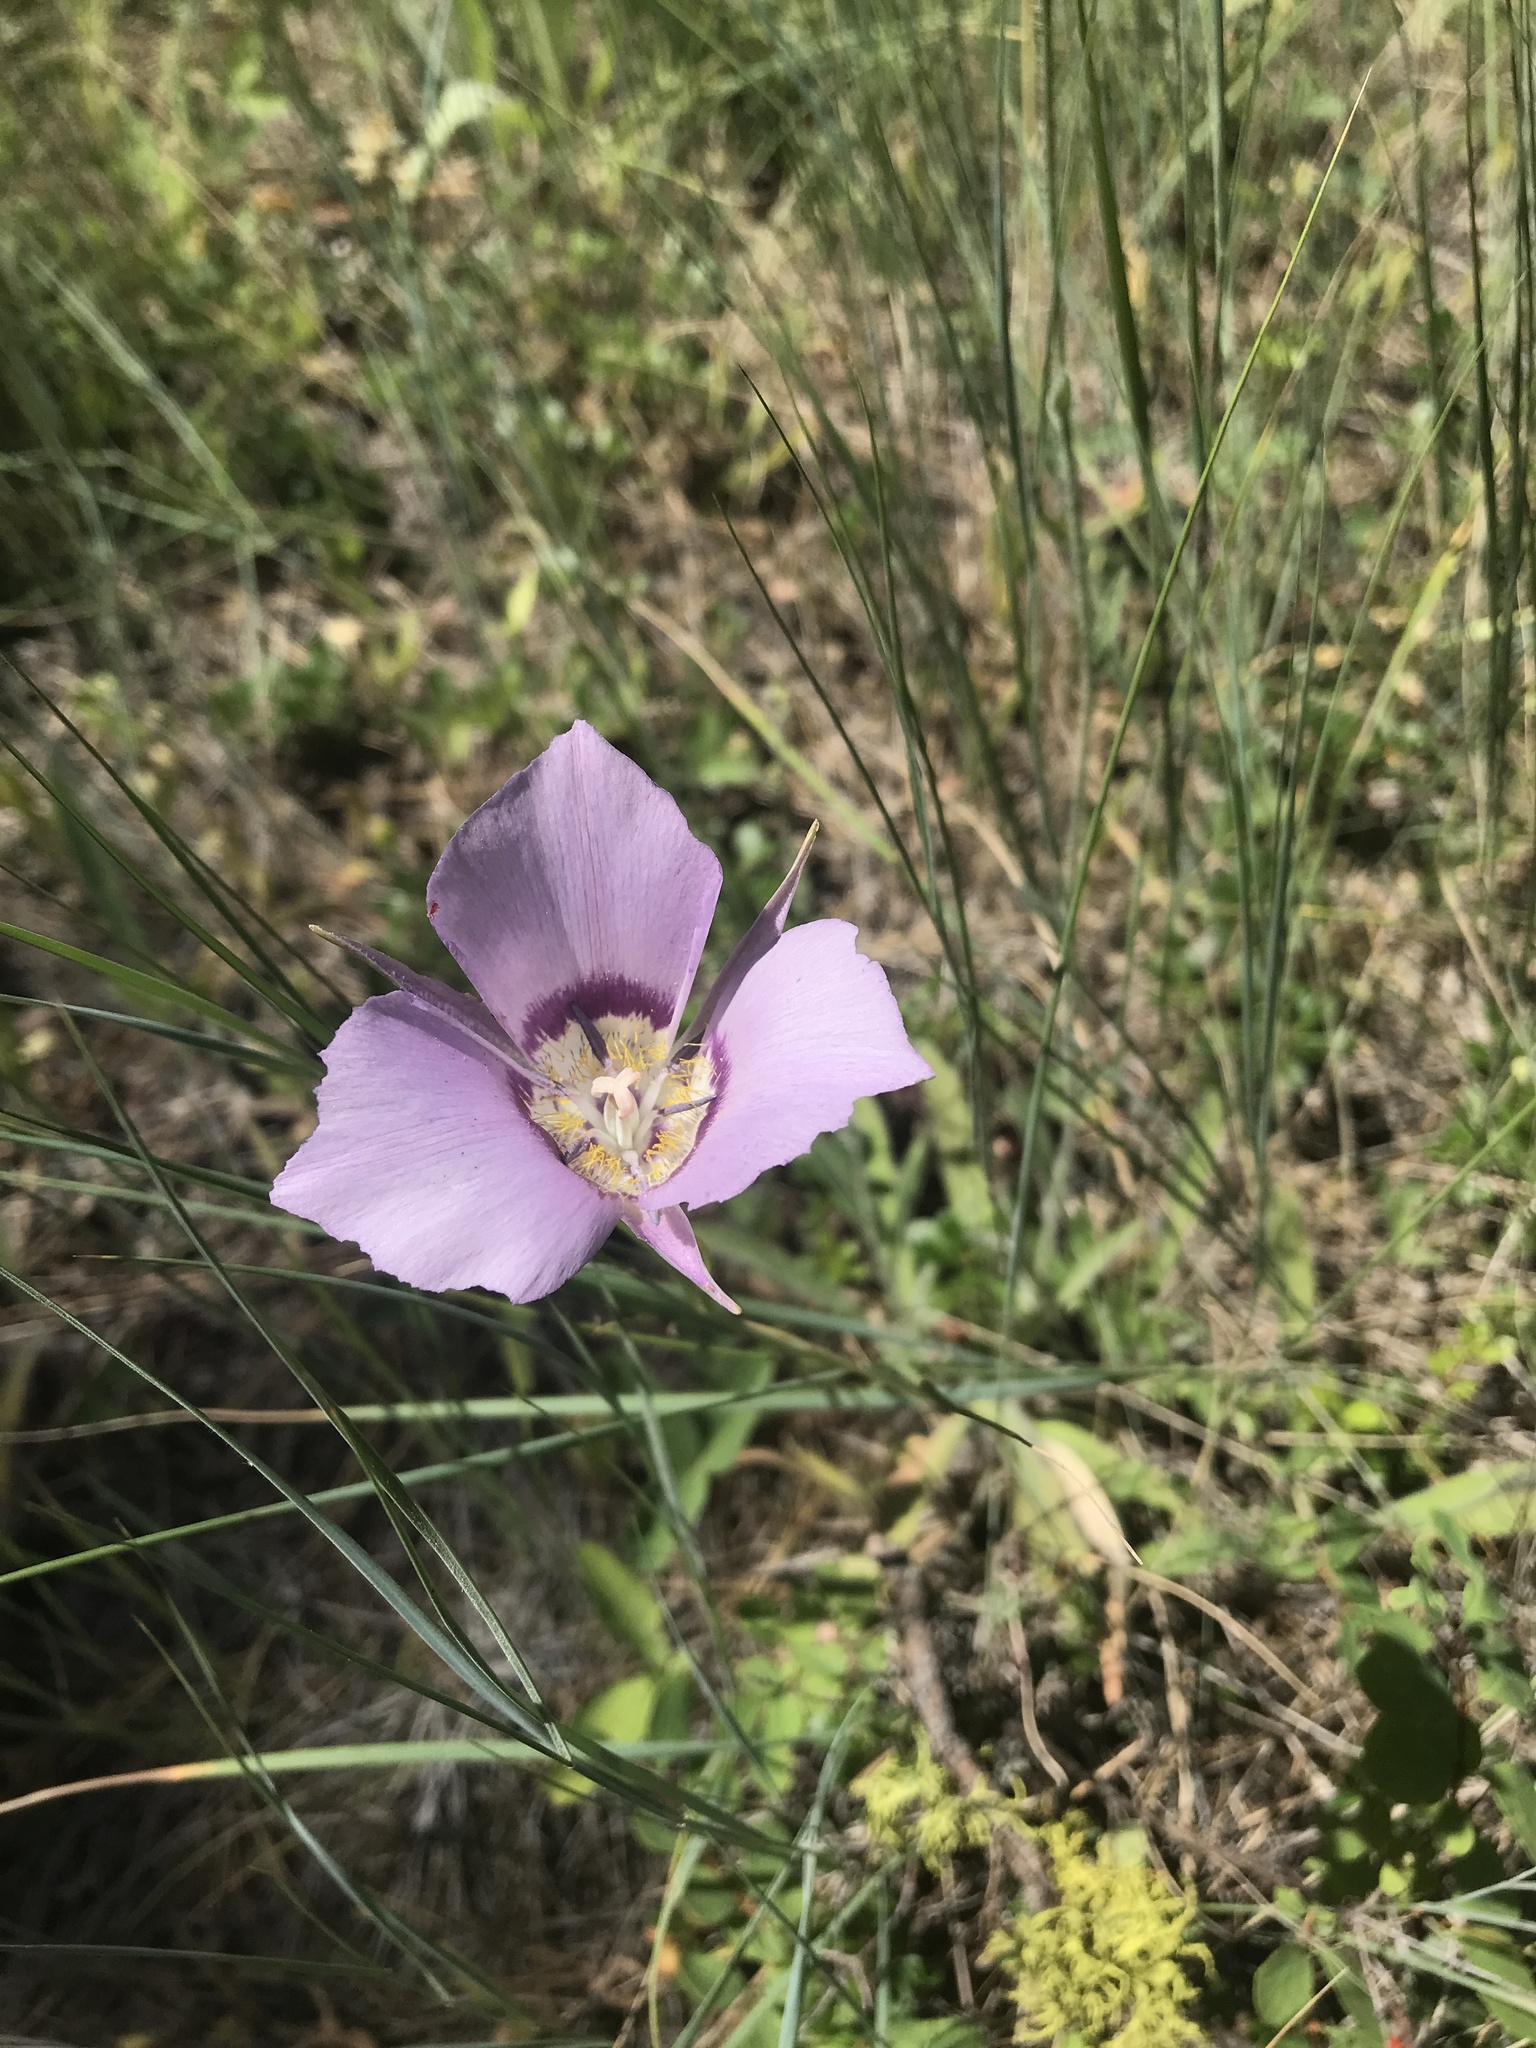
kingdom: Plantae
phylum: Tracheophyta
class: Liliopsida
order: Liliales
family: Liliaceae
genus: Calochortus
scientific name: Calochortus macrocarpus
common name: Green-band mariposa lily
